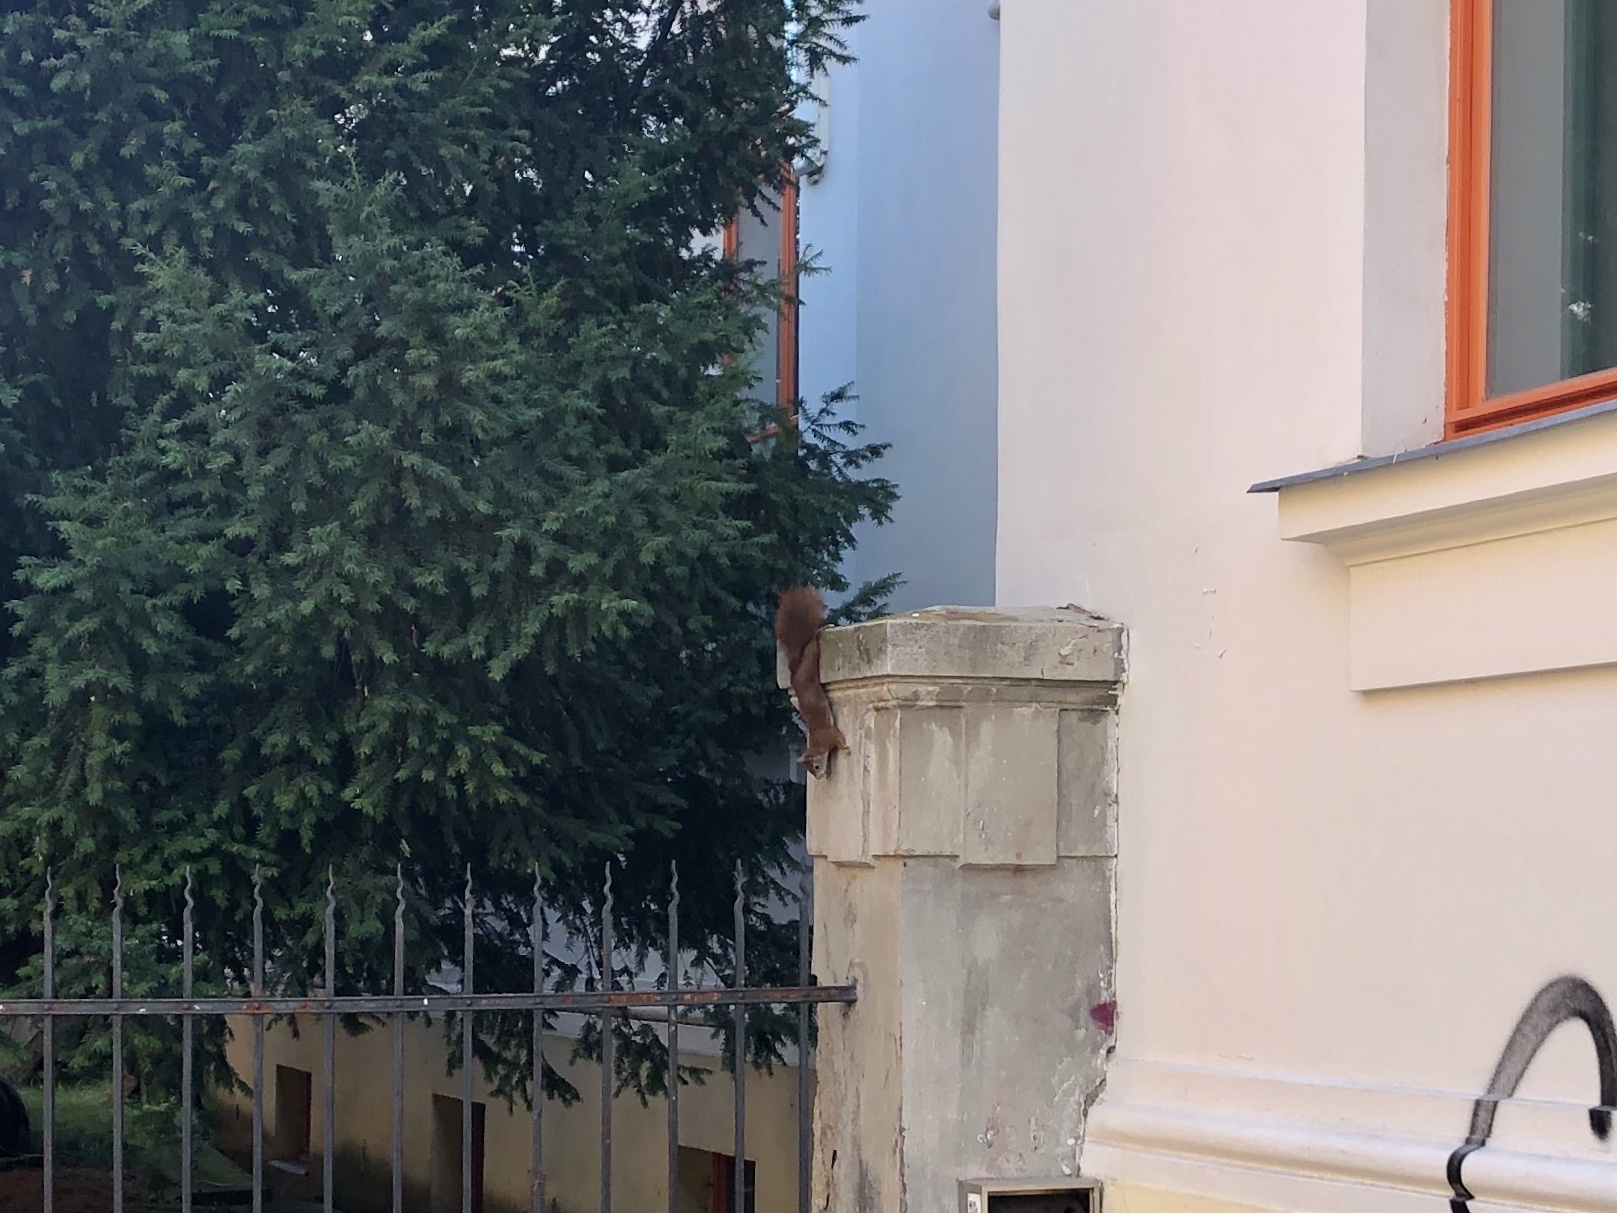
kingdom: Animalia
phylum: Chordata
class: Mammalia
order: Rodentia
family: Sciuridae
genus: Sciurus
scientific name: Sciurus vulgaris
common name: Eurasian red squirrel
